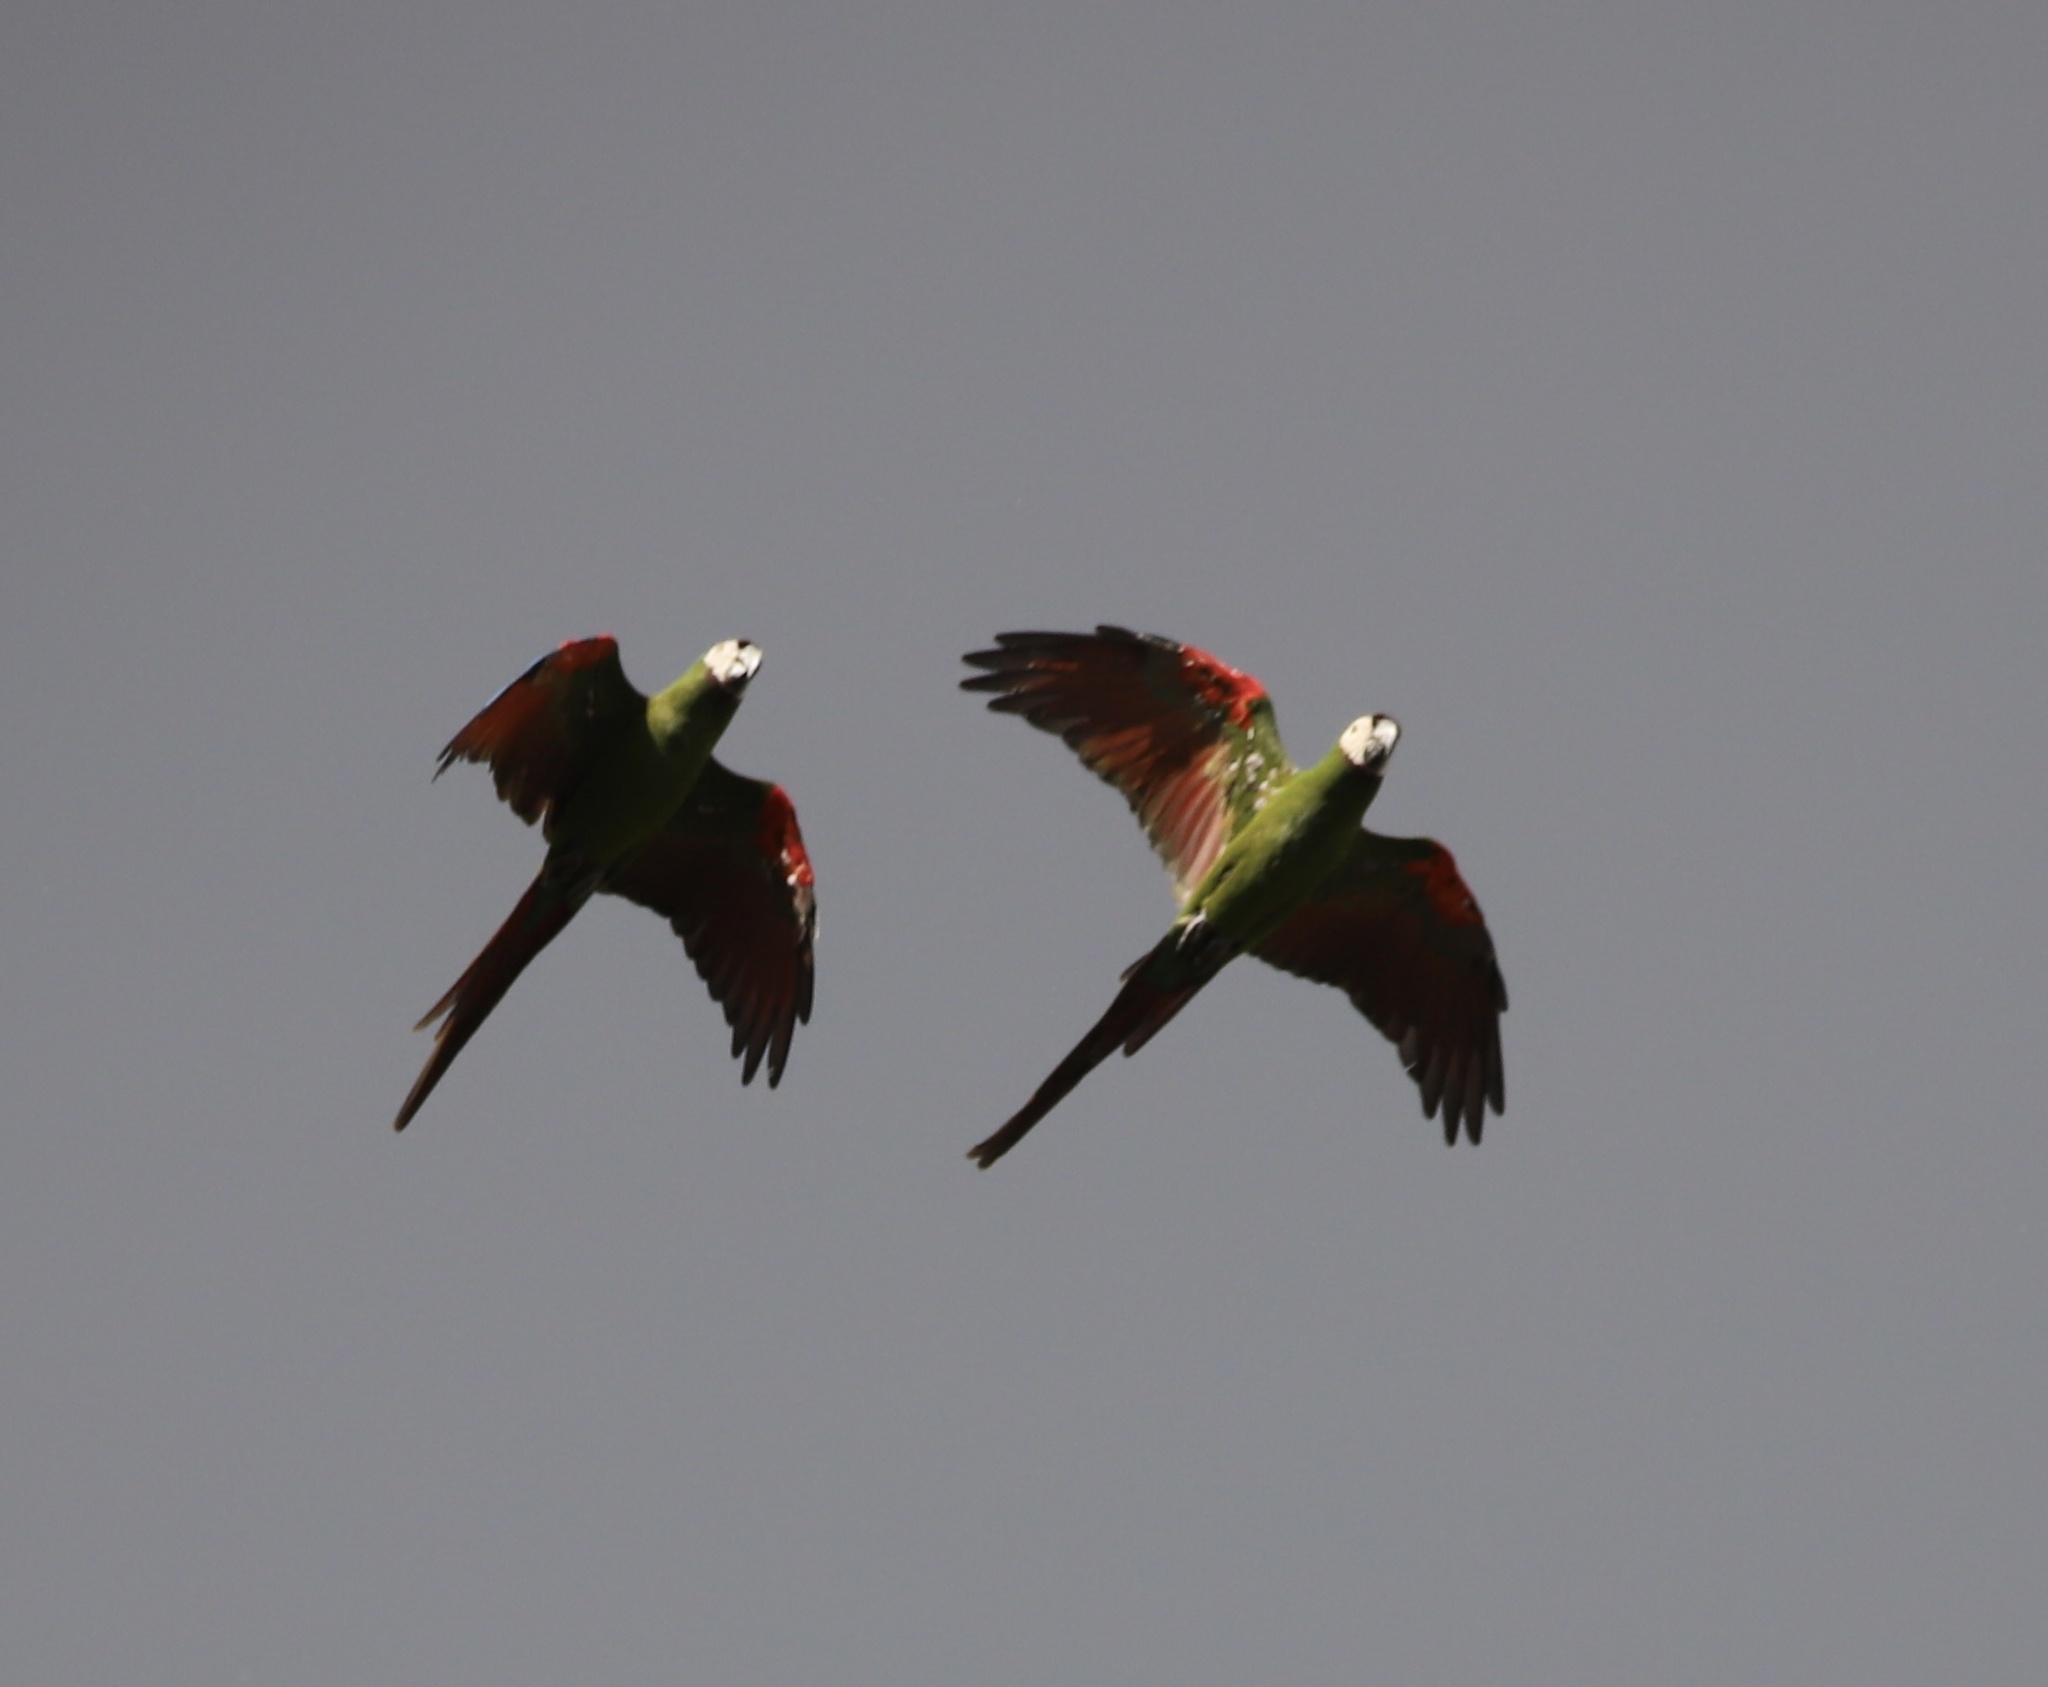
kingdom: Animalia
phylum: Chordata
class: Aves
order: Psittaciformes
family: Psittacidae
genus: Ara
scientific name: Ara severus
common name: Chestnut-fronted macaw
